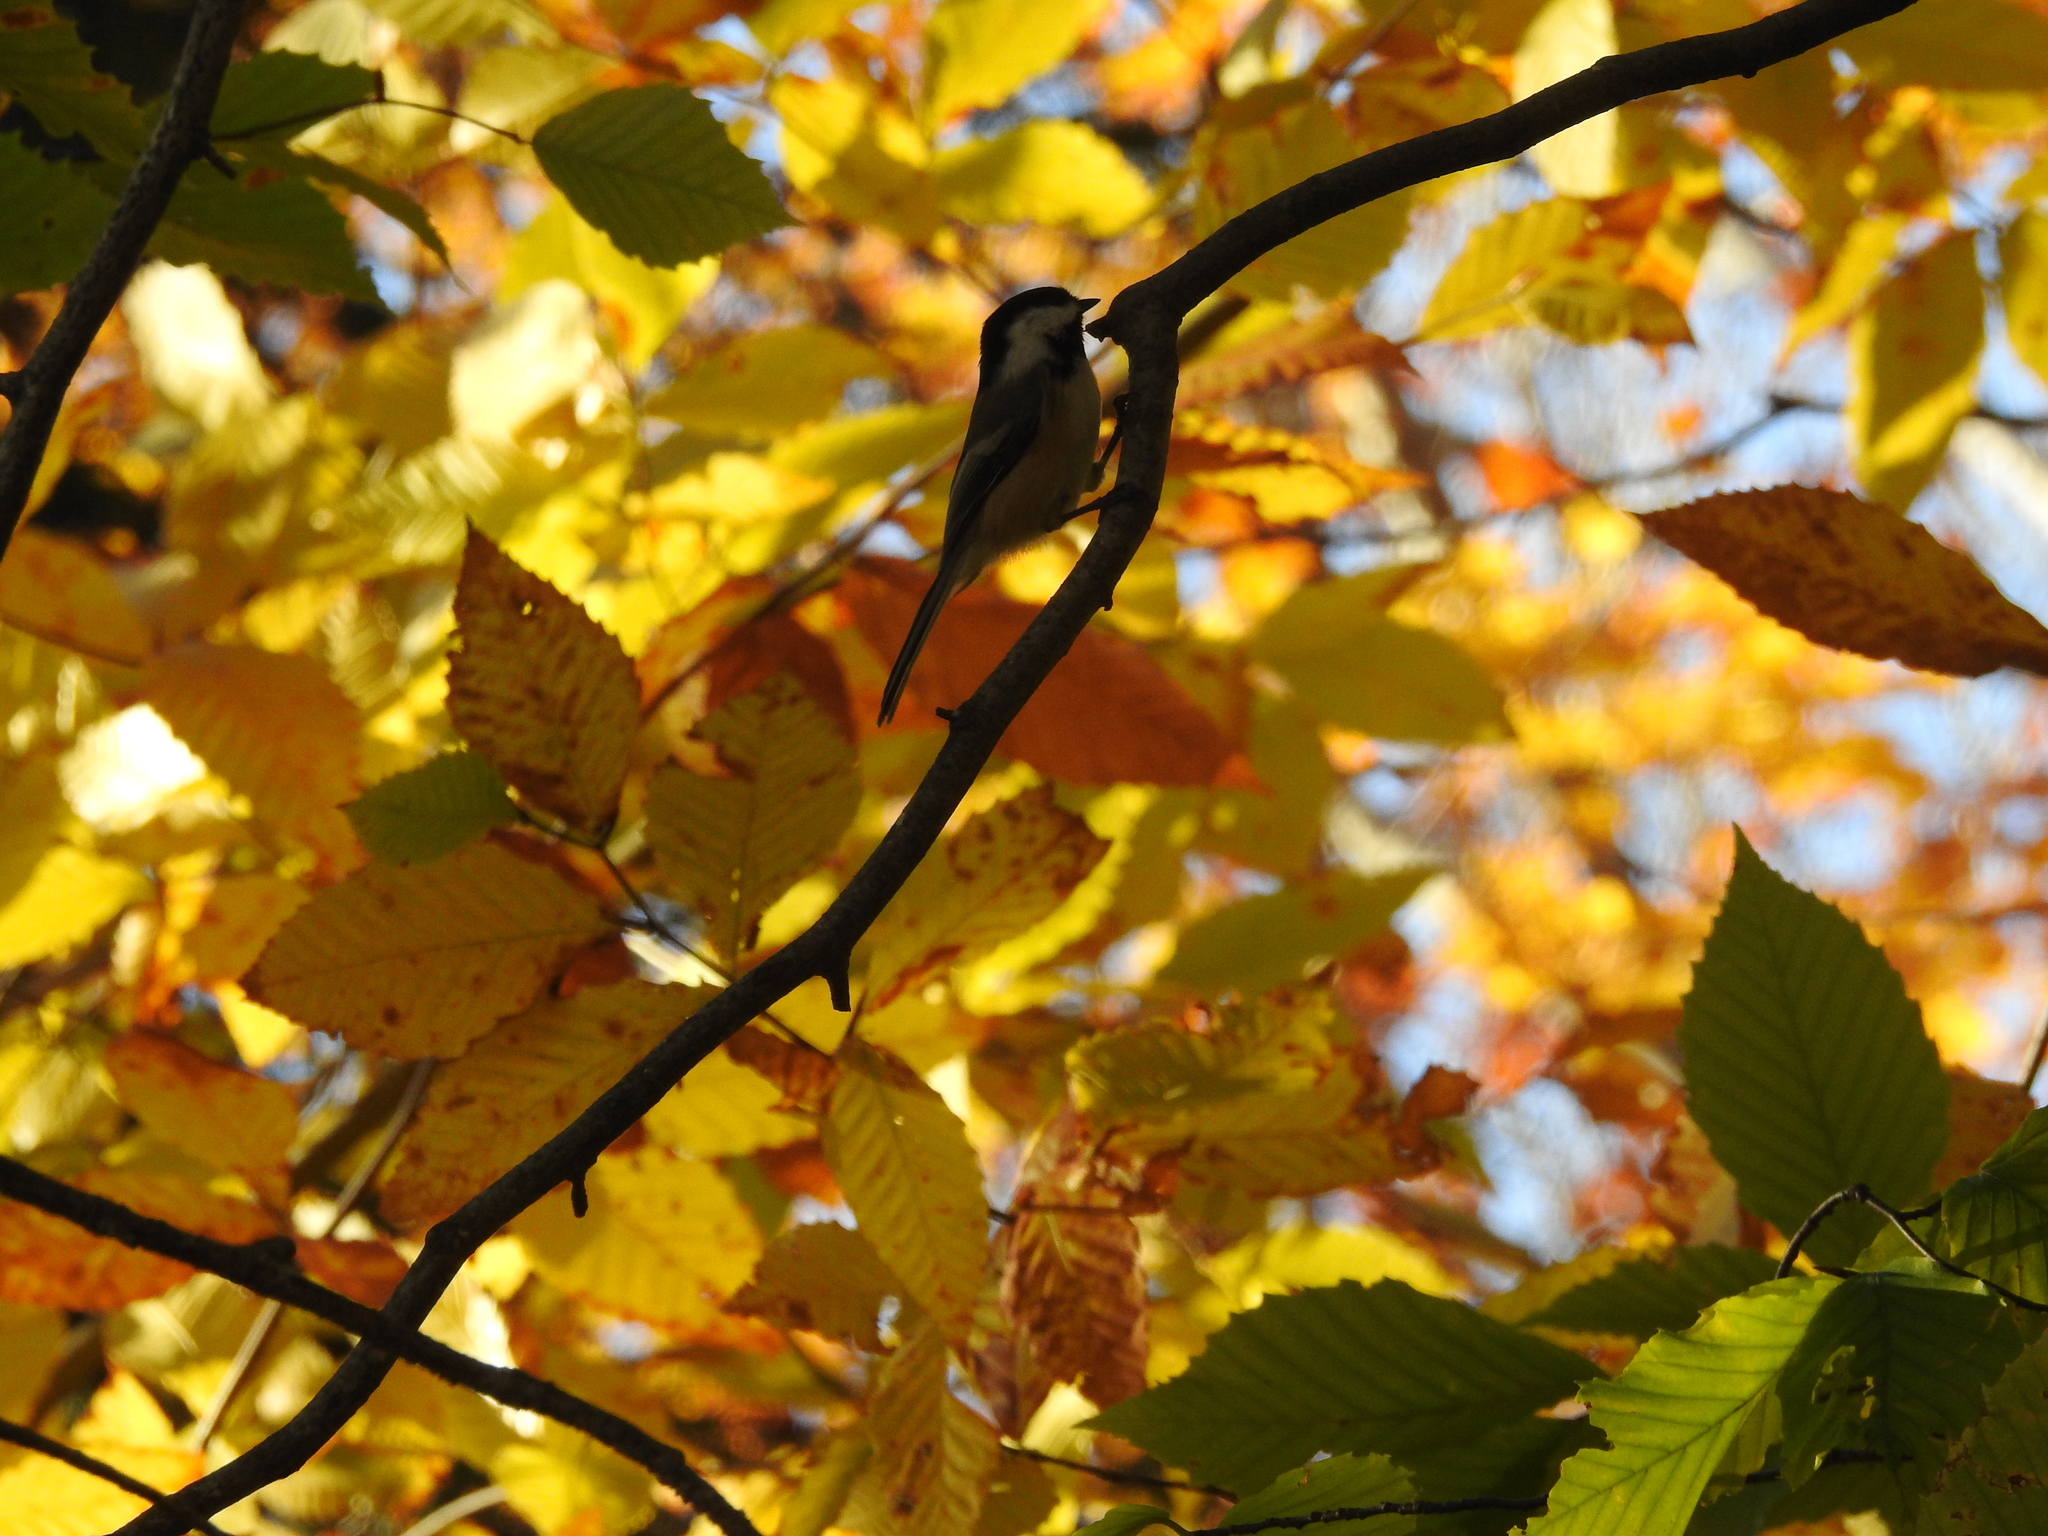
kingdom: Animalia
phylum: Chordata
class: Aves
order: Passeriformes
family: Paridae
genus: Poecile
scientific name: Poecile atricapillus
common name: Black-capped chickadee
